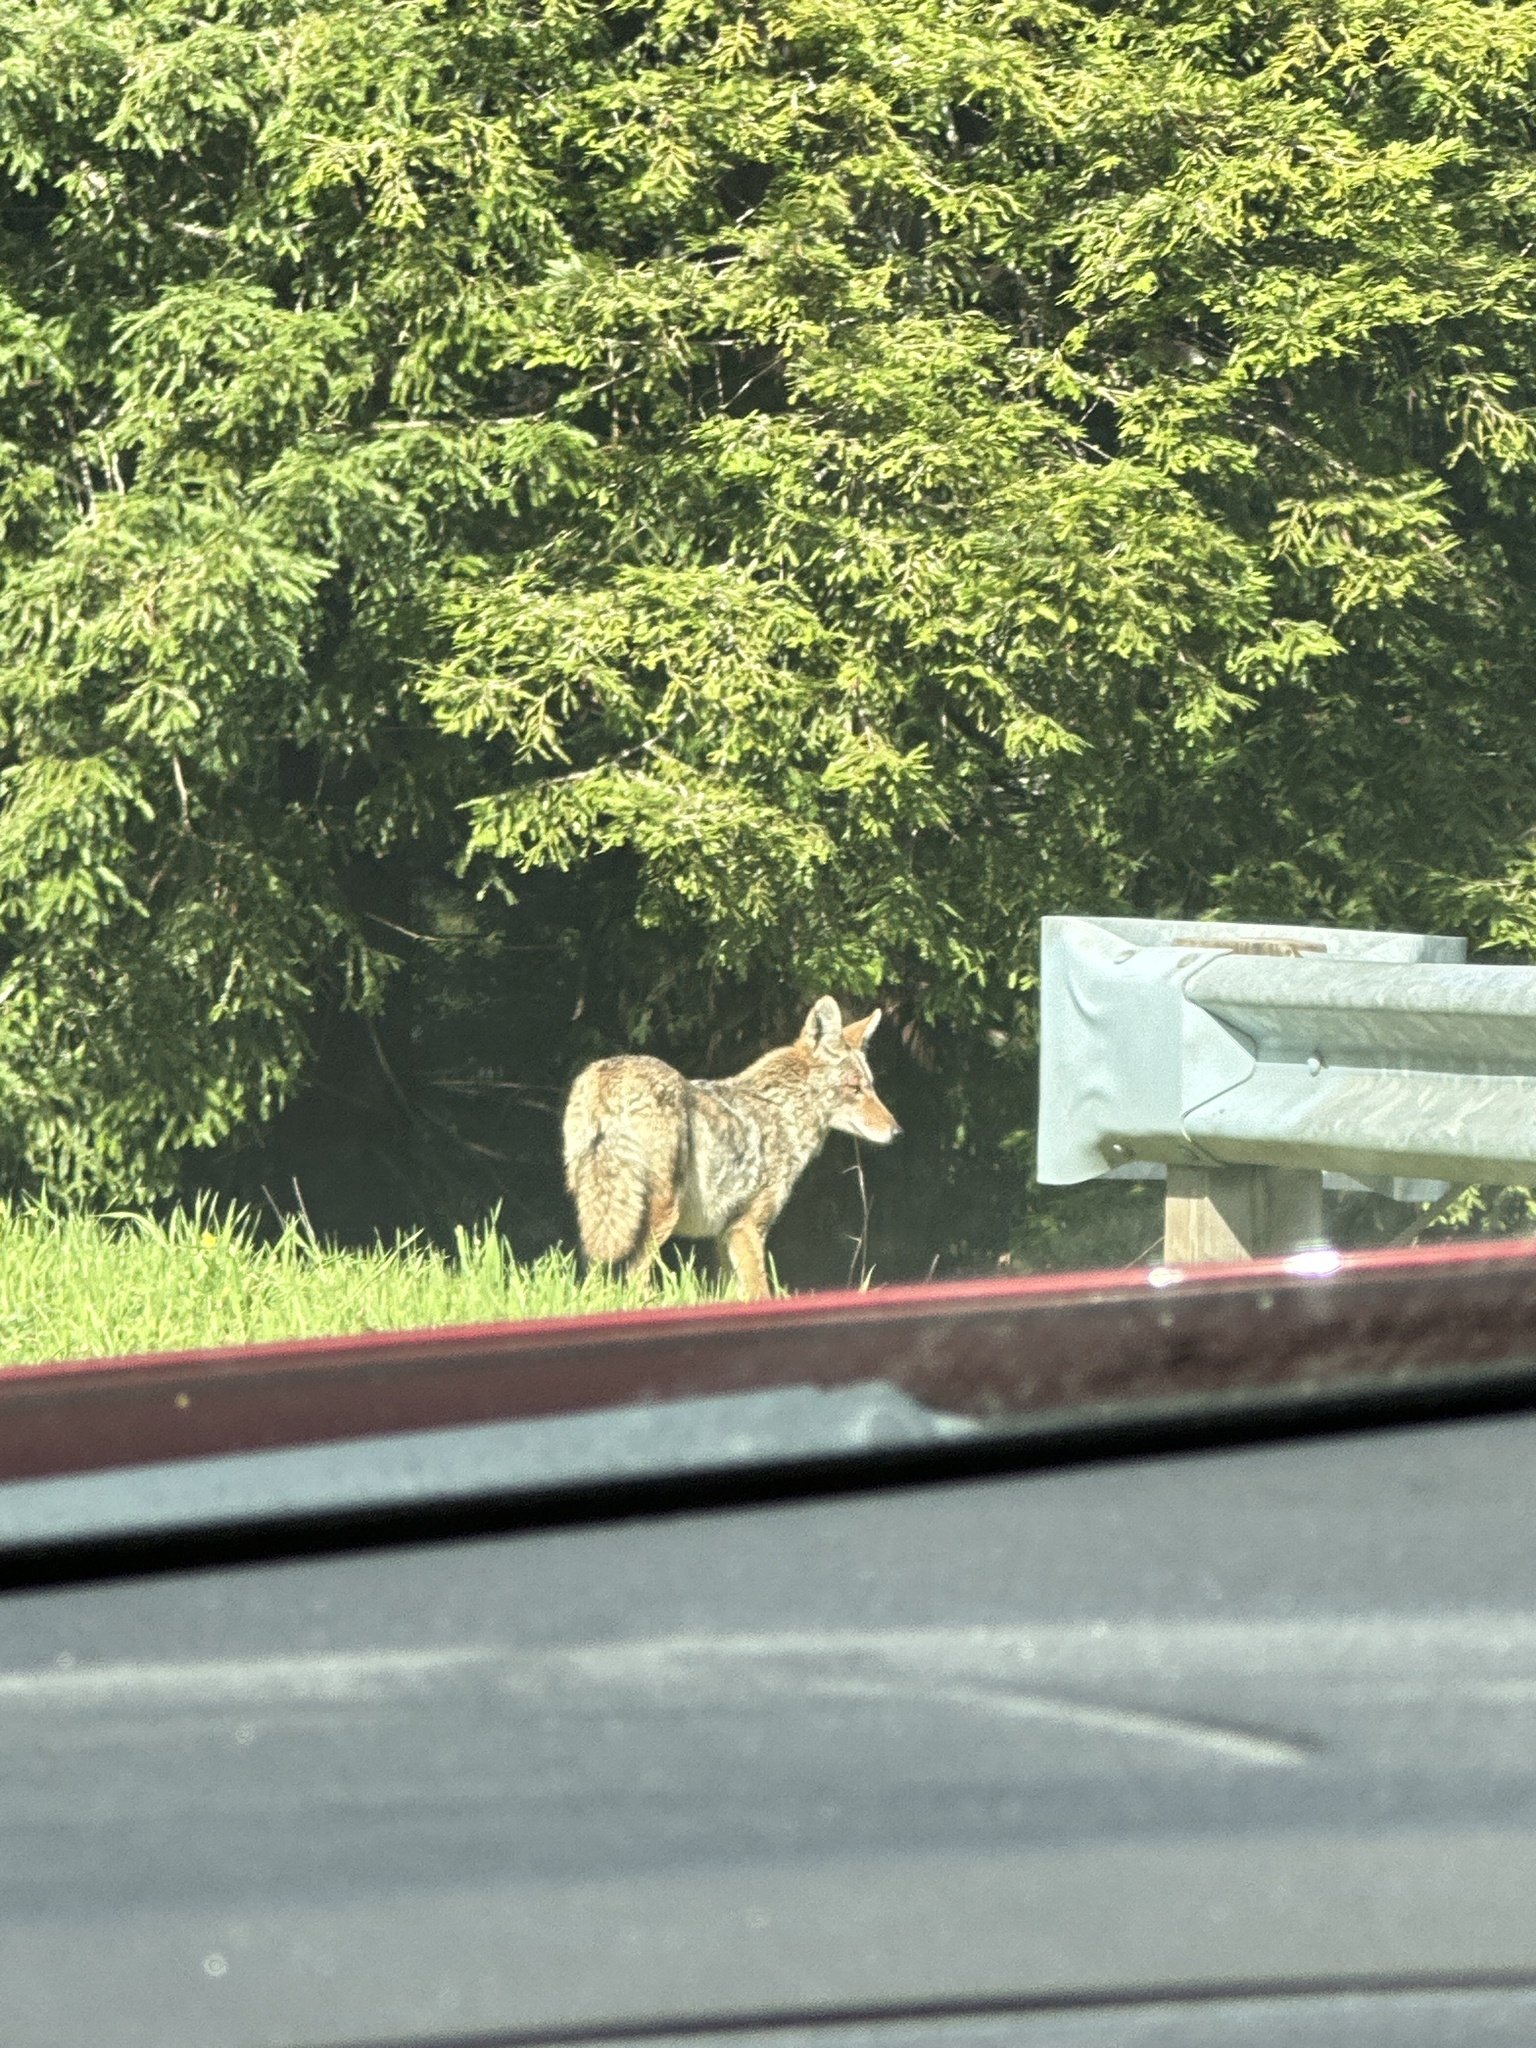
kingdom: Animalia
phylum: Chordata
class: Mammalia
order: Carnivora
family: Canidae
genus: Canis
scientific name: Canis latrans
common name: Coyote
